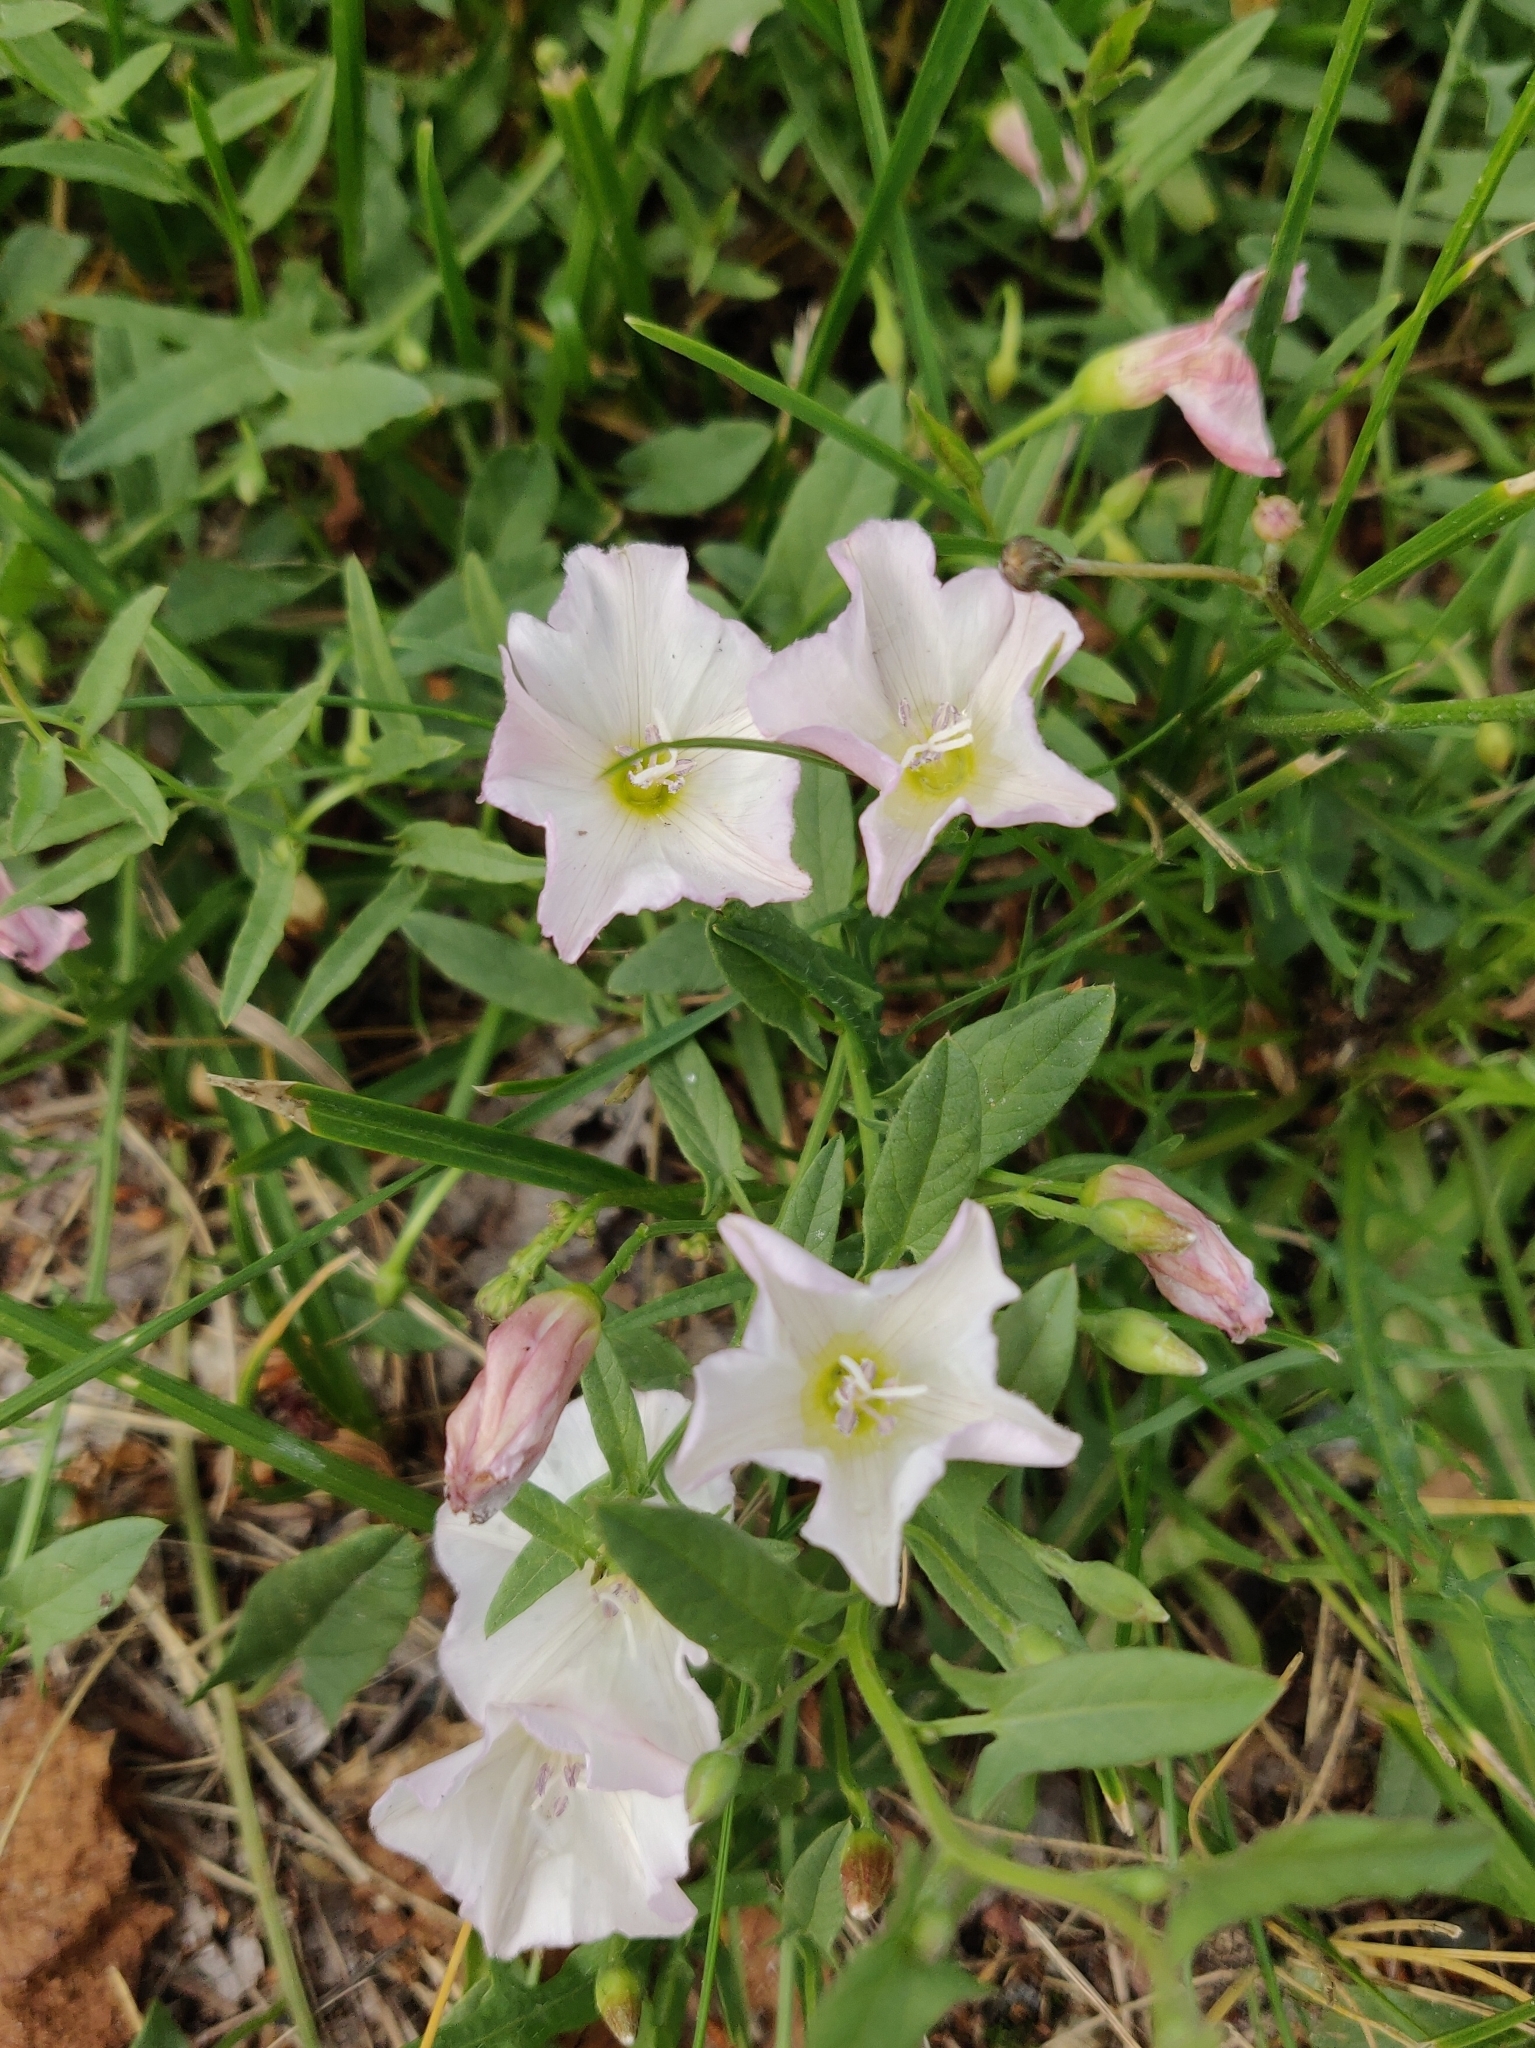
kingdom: Plantae
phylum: Tracheophyta
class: Magnoliopsida
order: Solanales
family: Convolvulaceae
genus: Convolvulus
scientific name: Convolvulus arvensis
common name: Field bindweed
